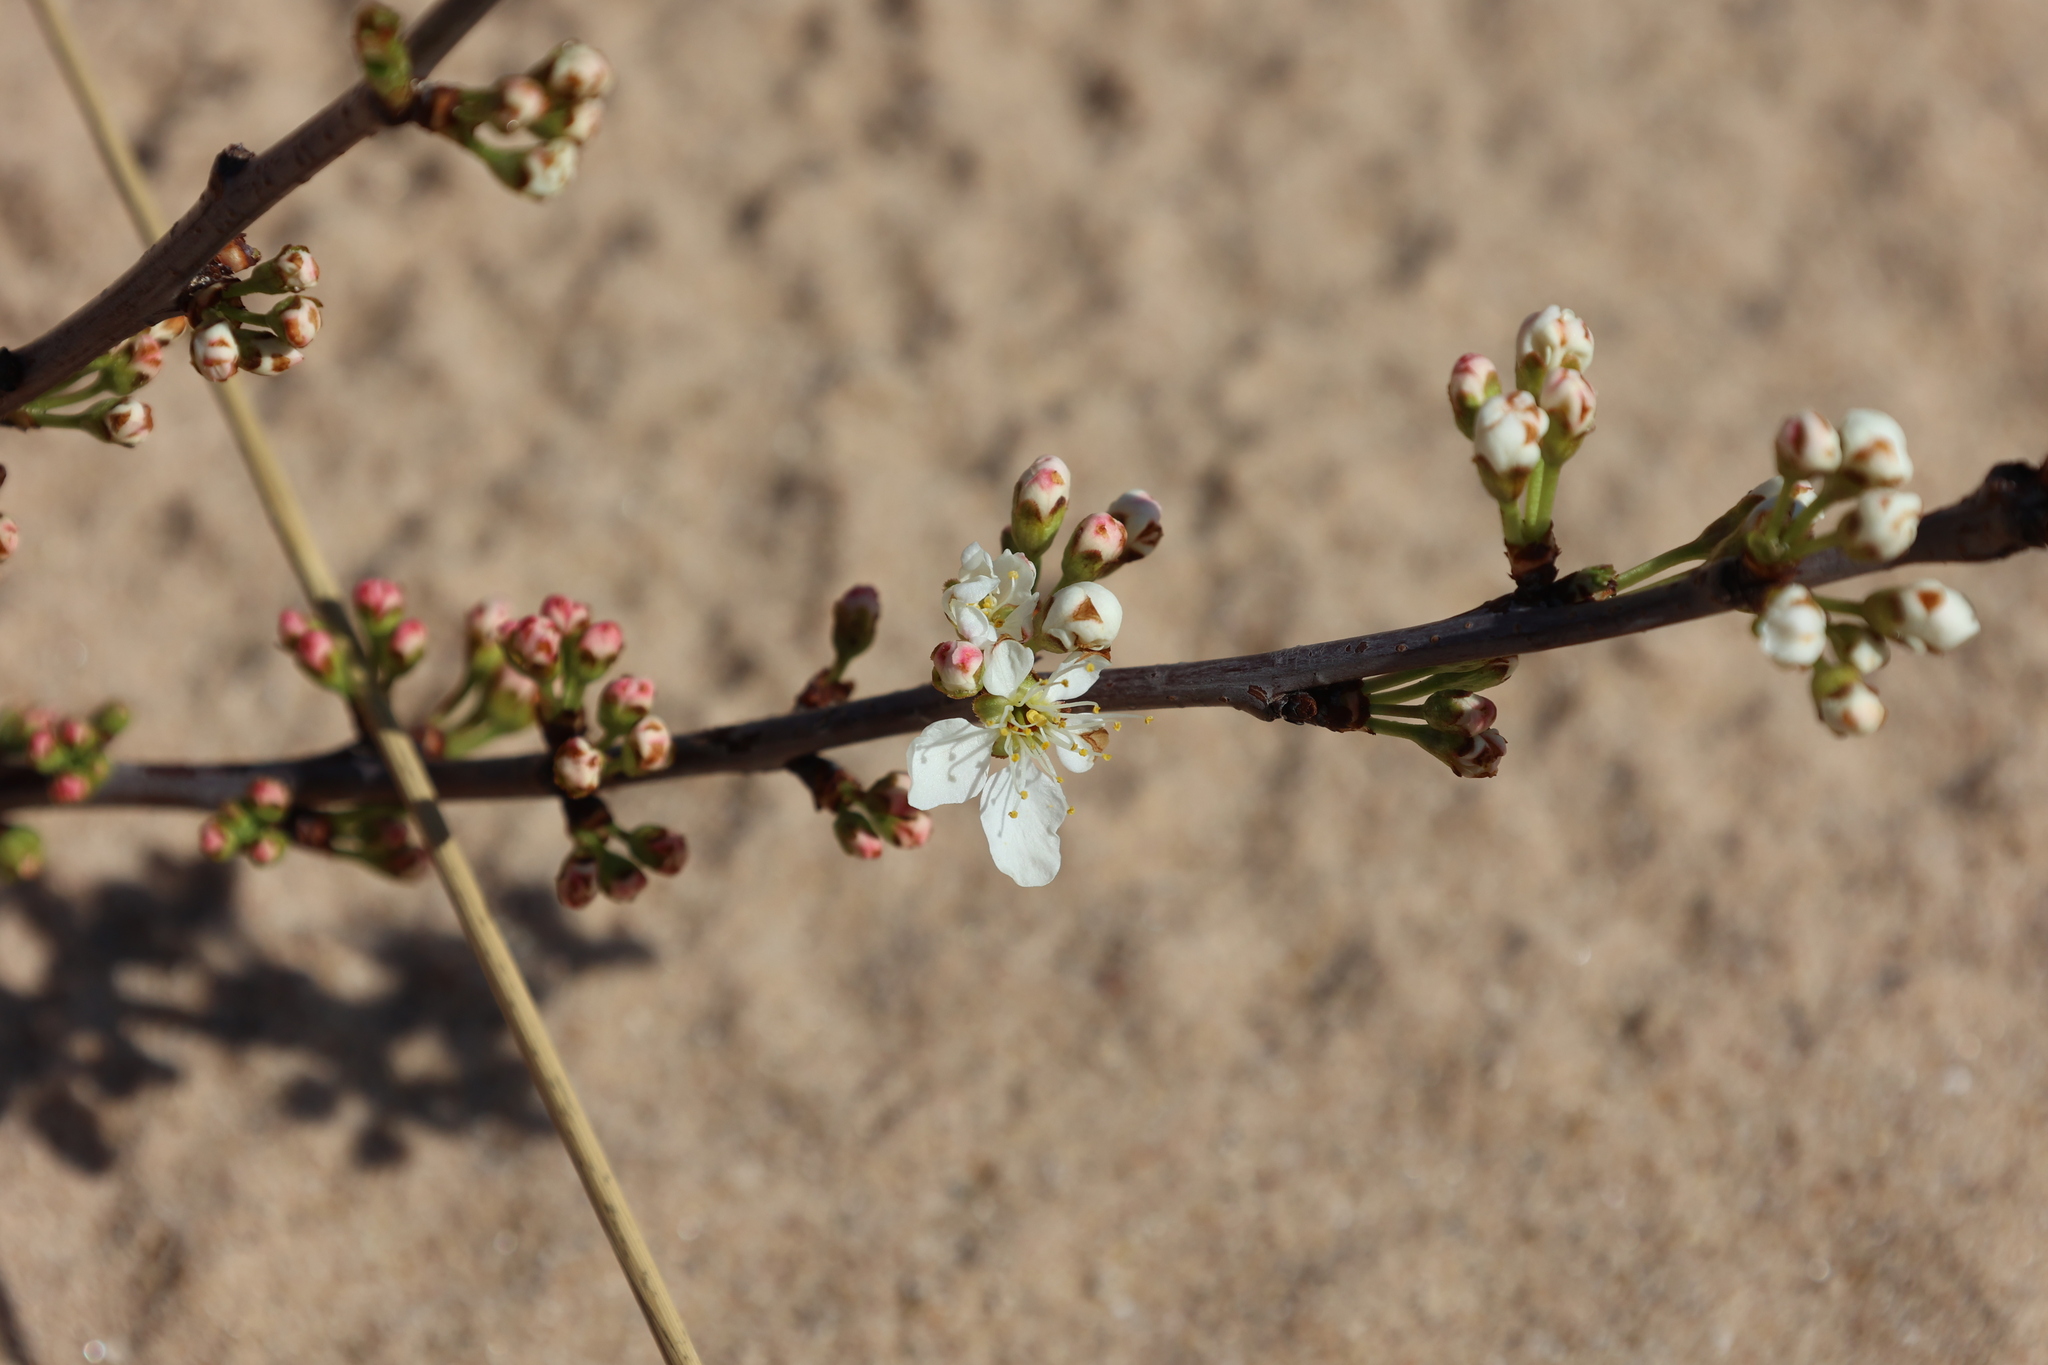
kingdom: Plantae
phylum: Tracheophyta
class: Magnoliopsida
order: Rosales
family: Rosaceae
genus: Prunus
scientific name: Prunus pumila
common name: Dwarf cherry
